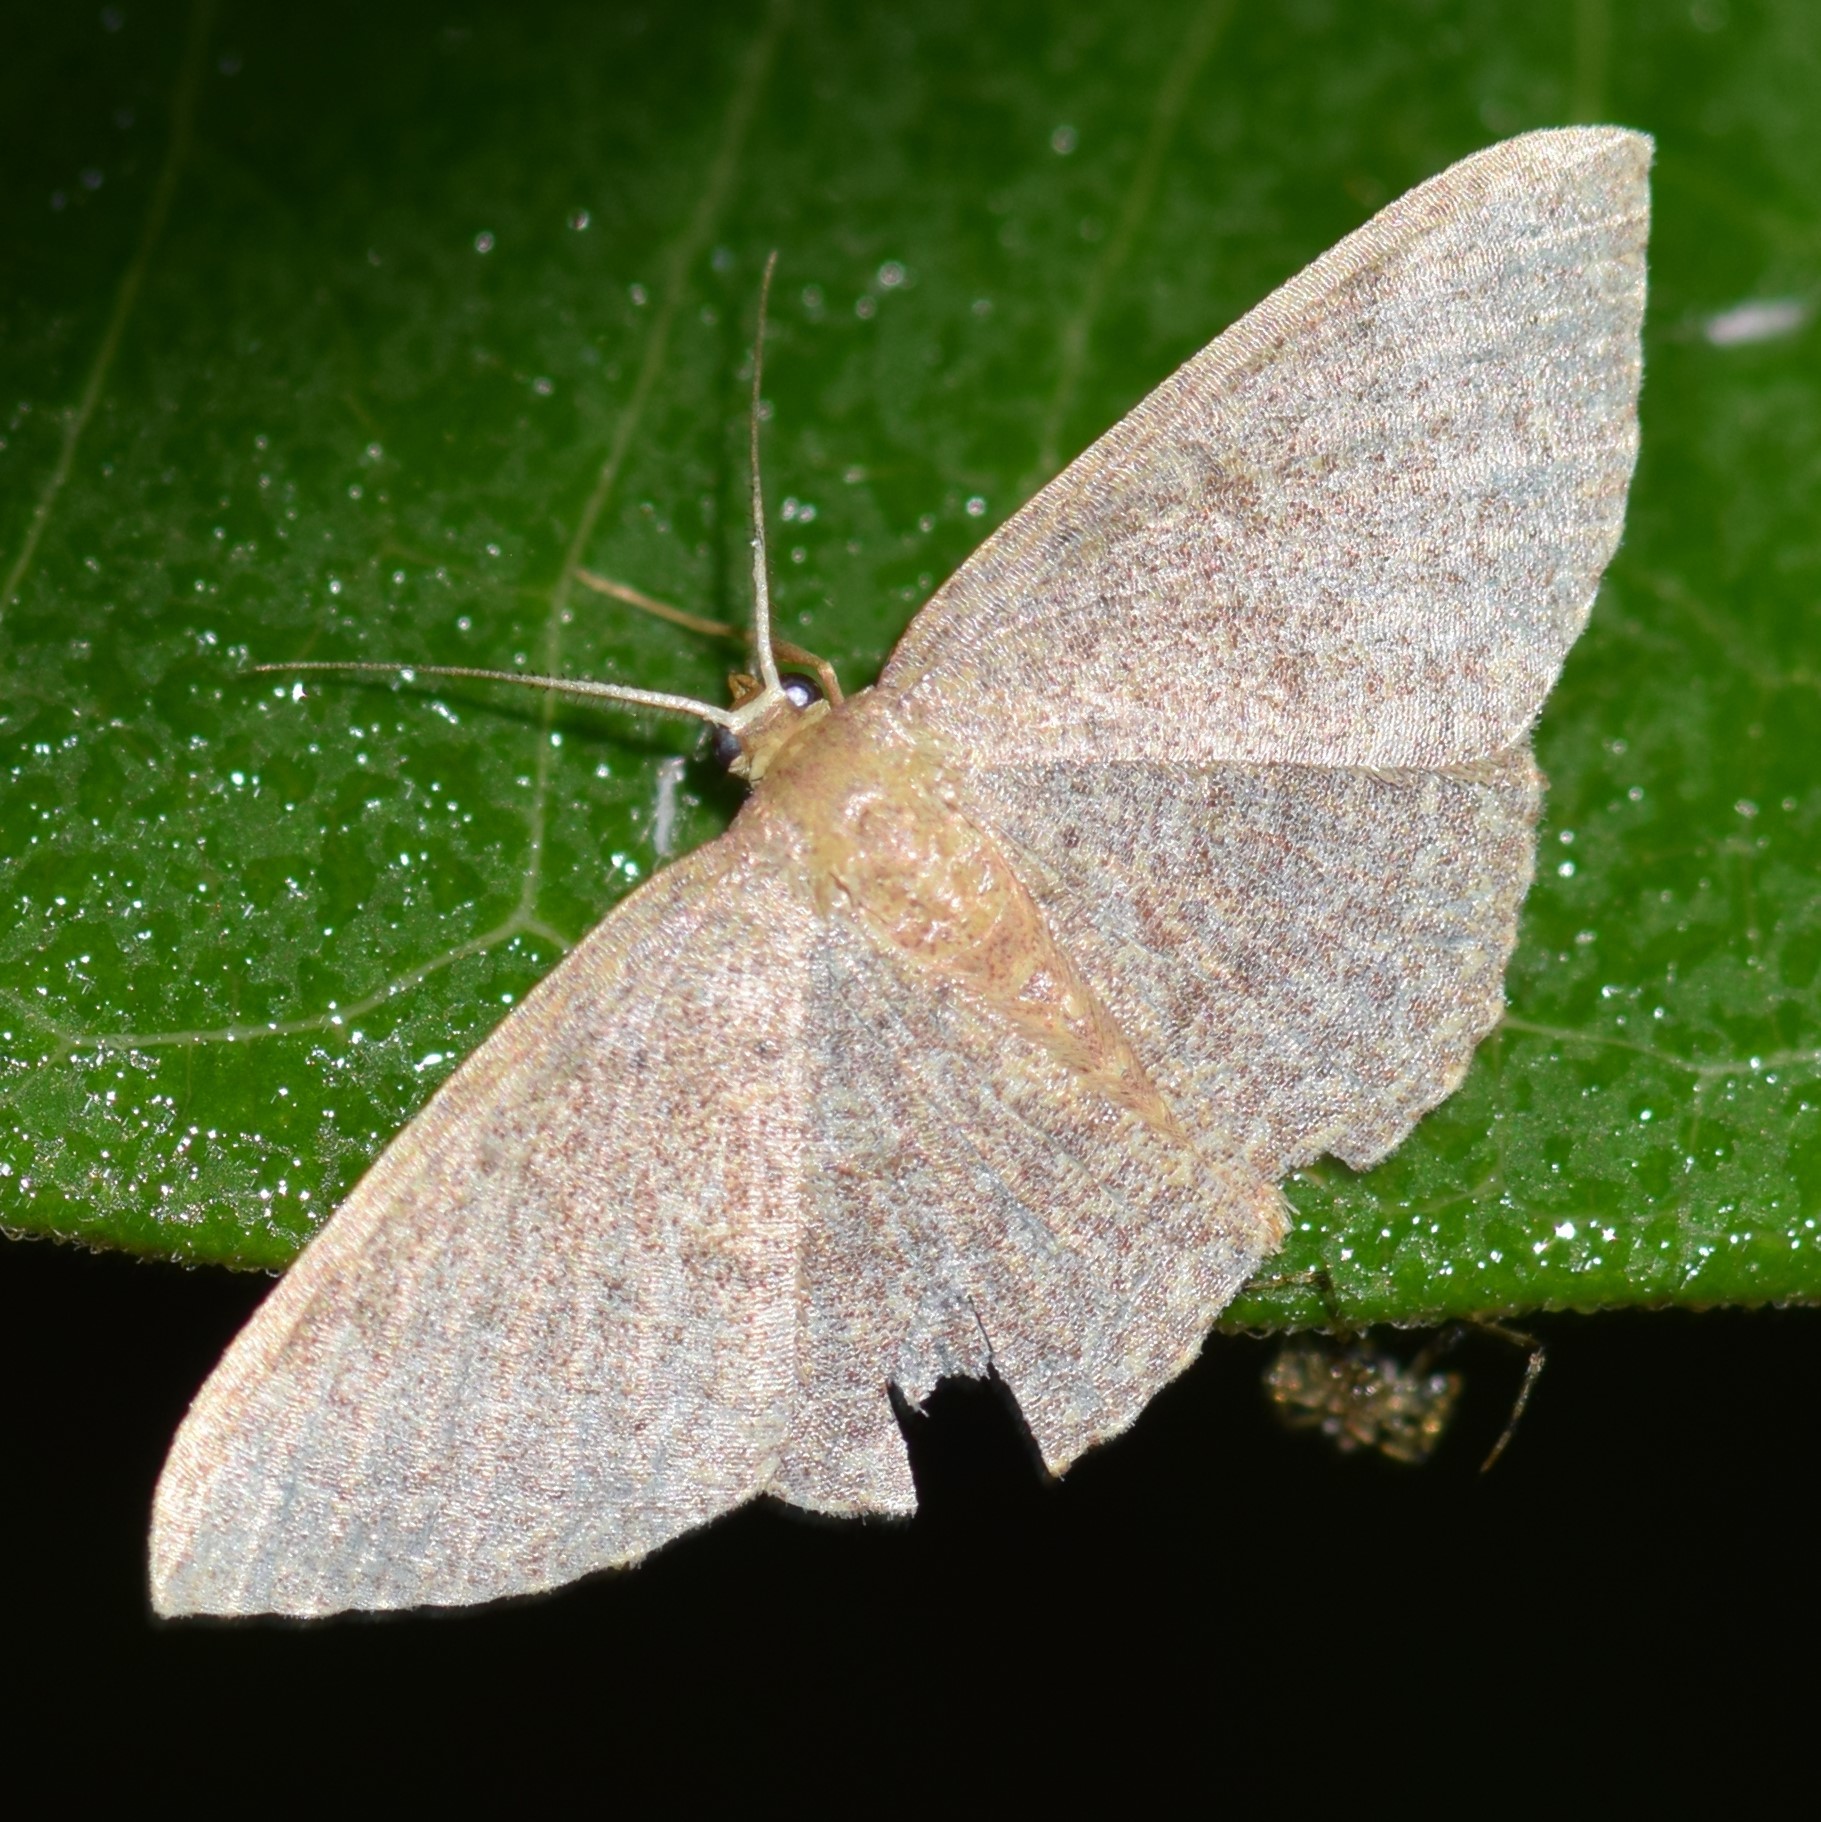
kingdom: Animalia
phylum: Arthropoda
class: Insecta
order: Lepidoptera
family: Geometridae
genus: Pleuroprucha
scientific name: Pleuroprucha insulsaria
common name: Common tan wave
